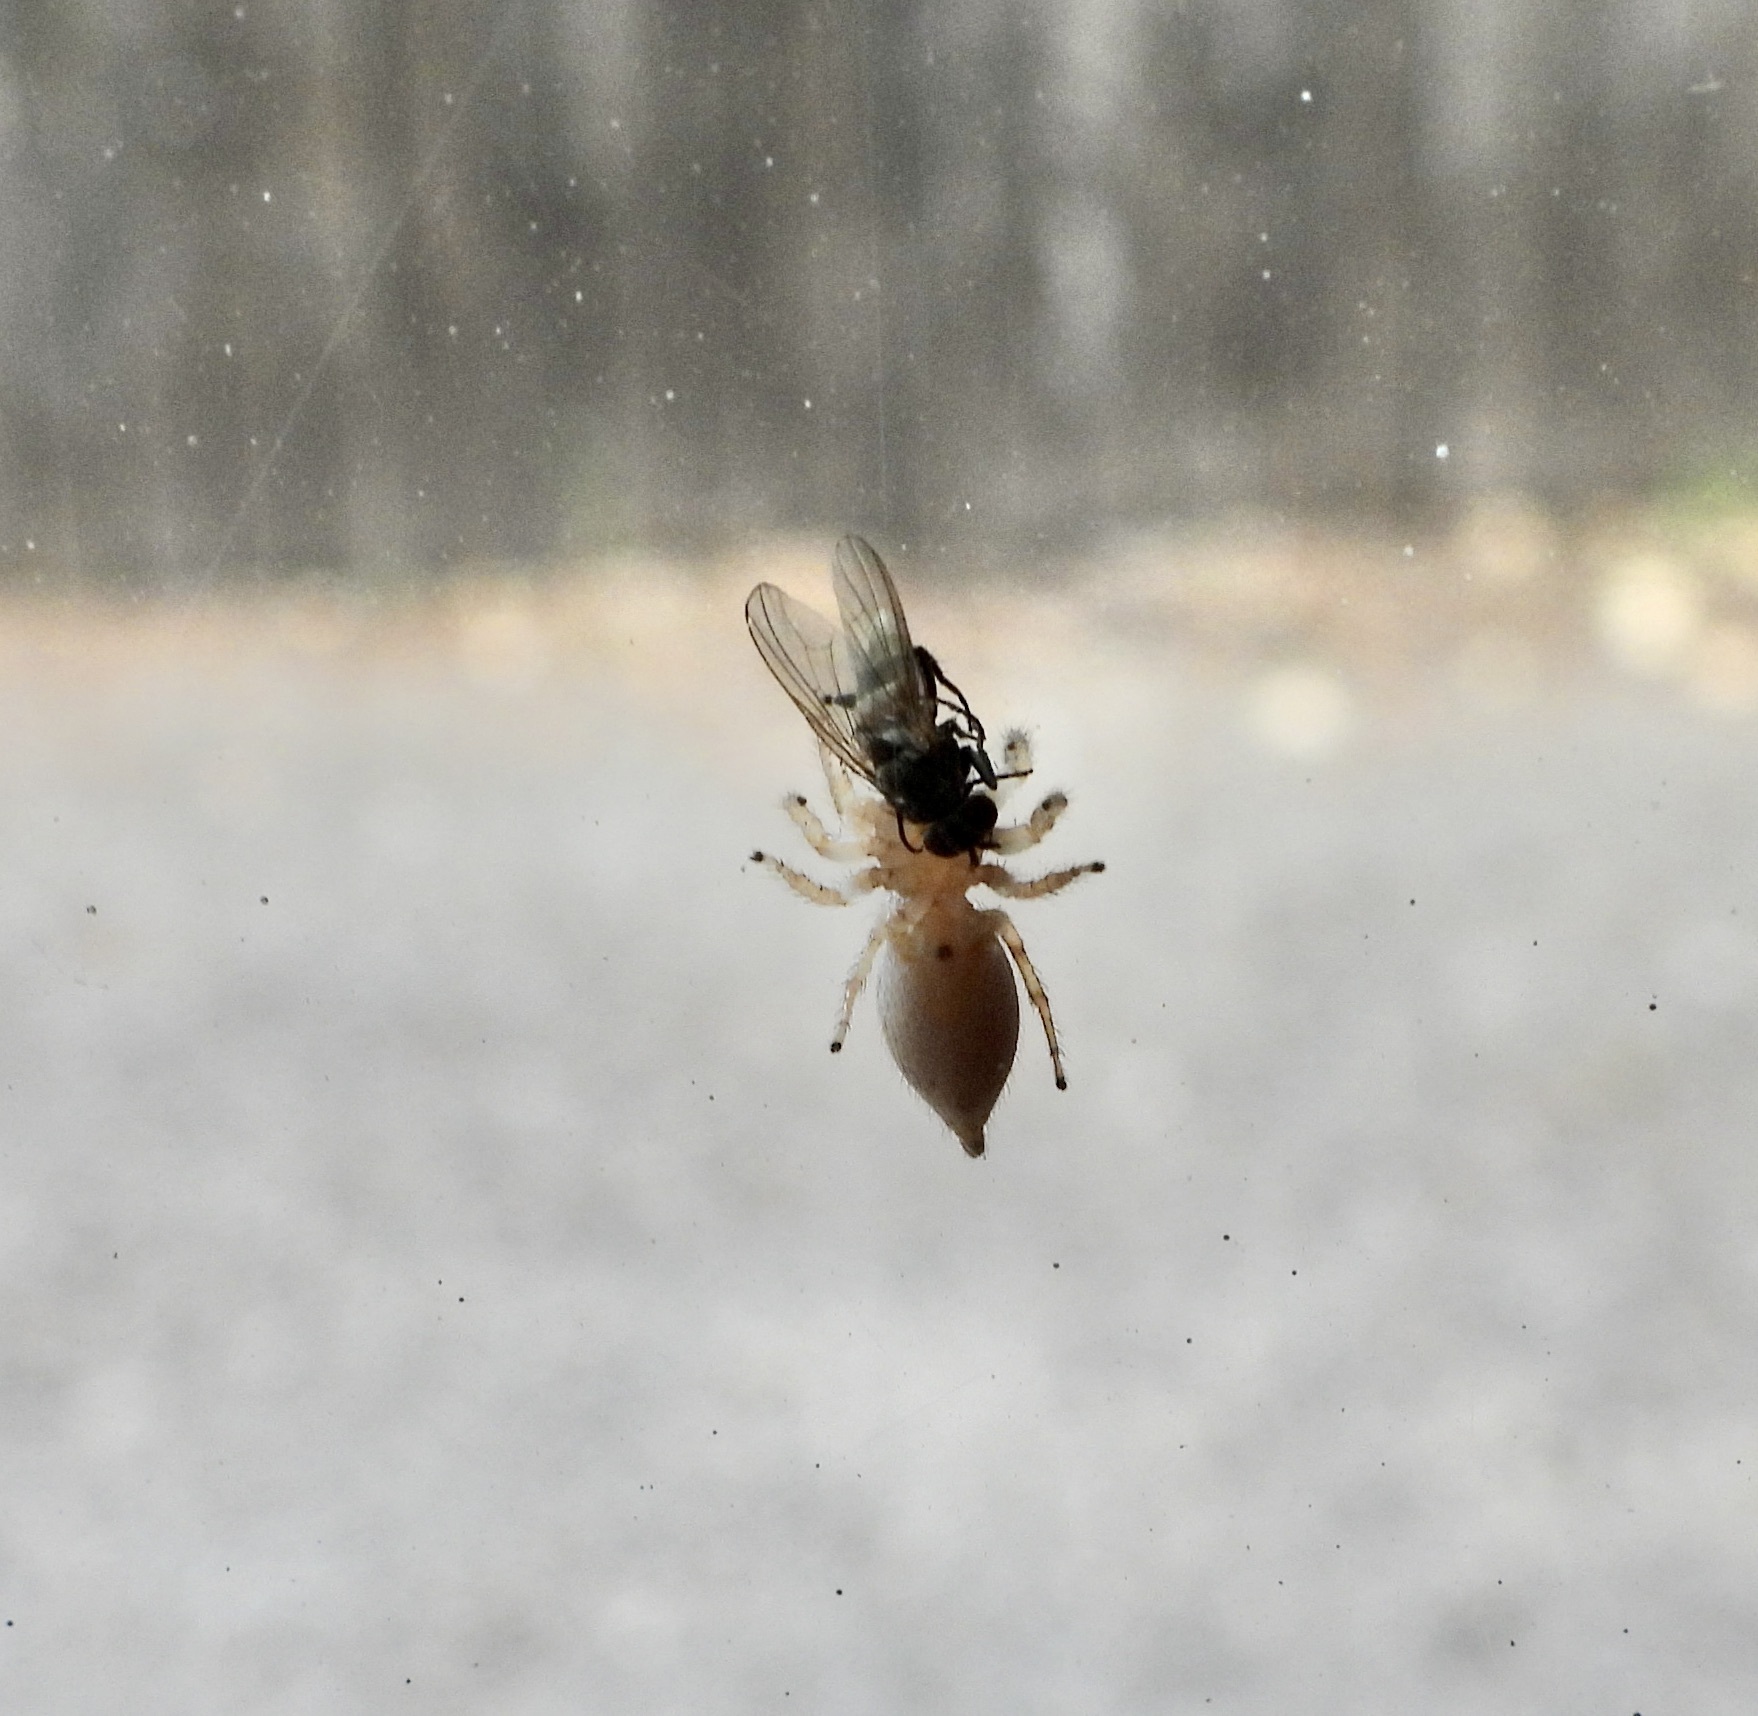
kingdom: Animalia
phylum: Arthropoda
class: Arachnida
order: Araneae
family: Salticidae
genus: Colonus
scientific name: Colonus hesperus
